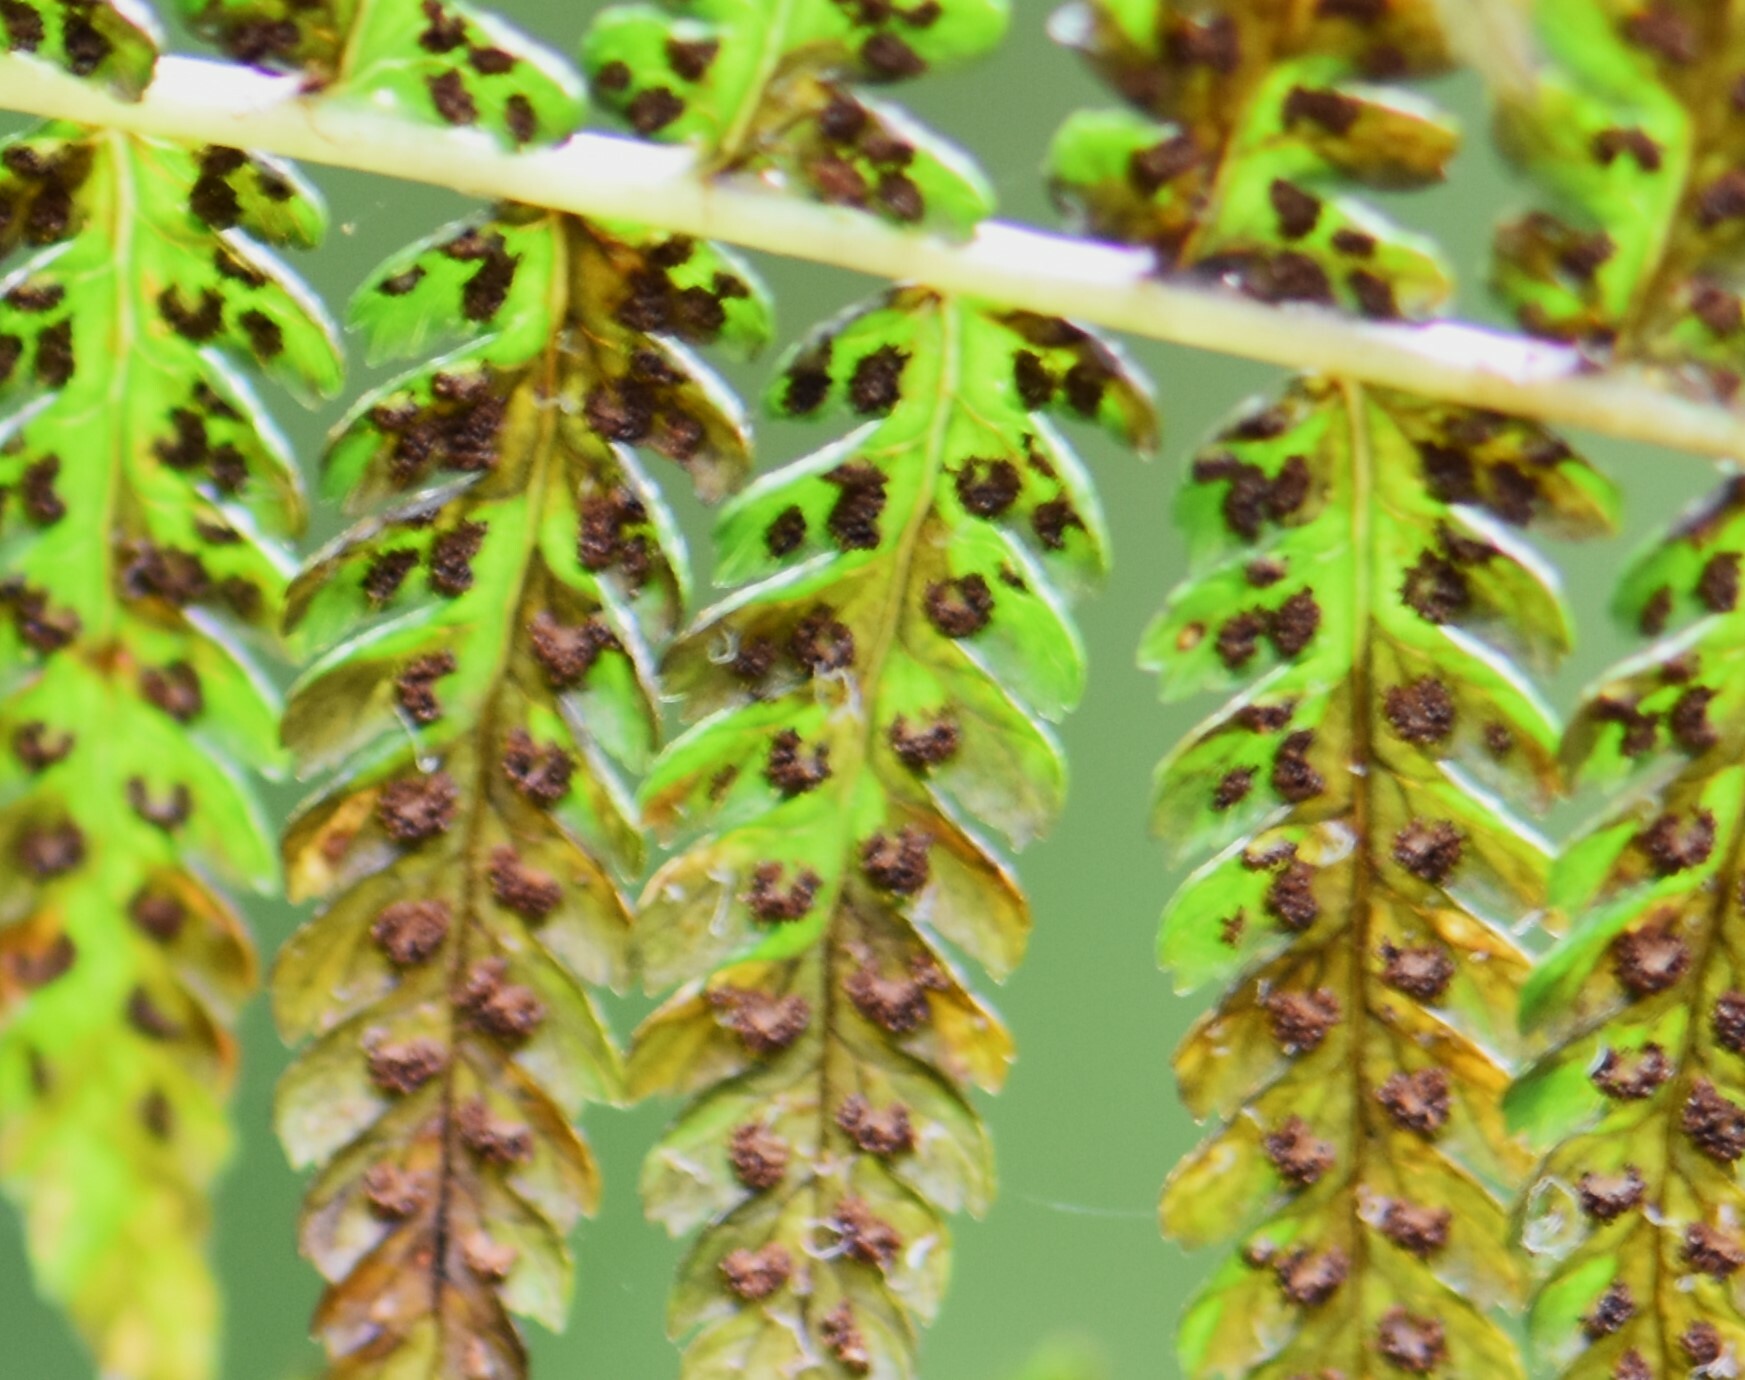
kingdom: Plantae
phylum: Tracheophyta
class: Polypodiopsida
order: Polypodiales
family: Athyriaceae
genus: Athyrium
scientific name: Athyrium filix-femina
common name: Lady fern
